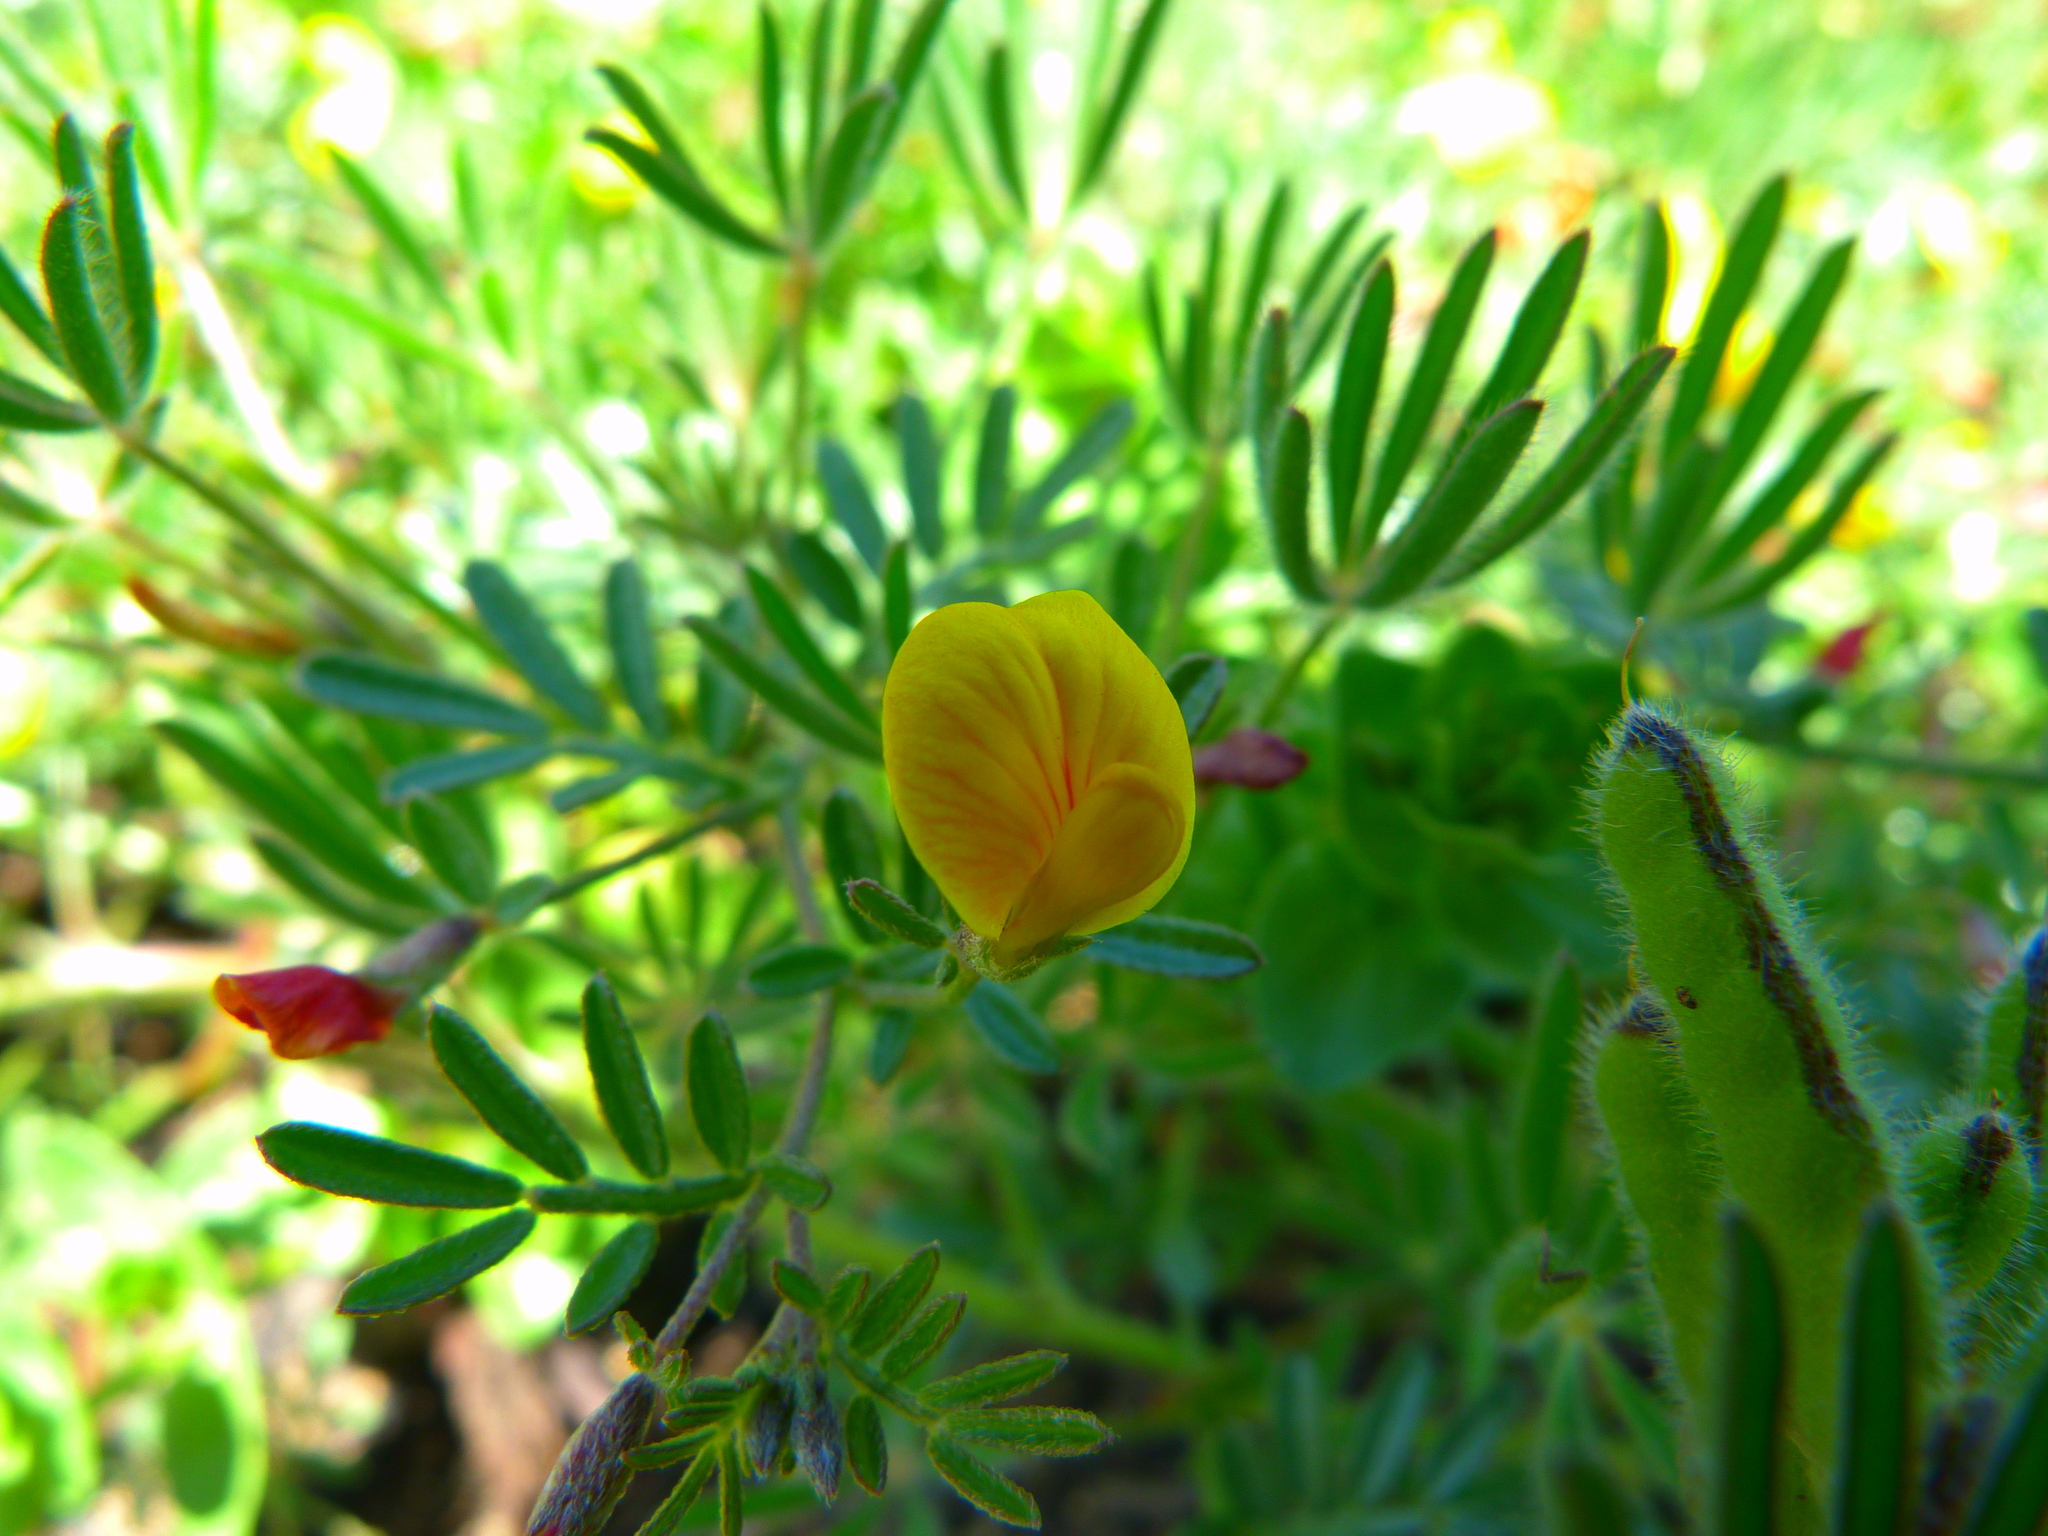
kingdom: Plantae
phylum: Tracheophyta
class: Magnoliopsida
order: Fabales
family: Fabaceae
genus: Acmispon
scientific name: Acmispon strigosus
